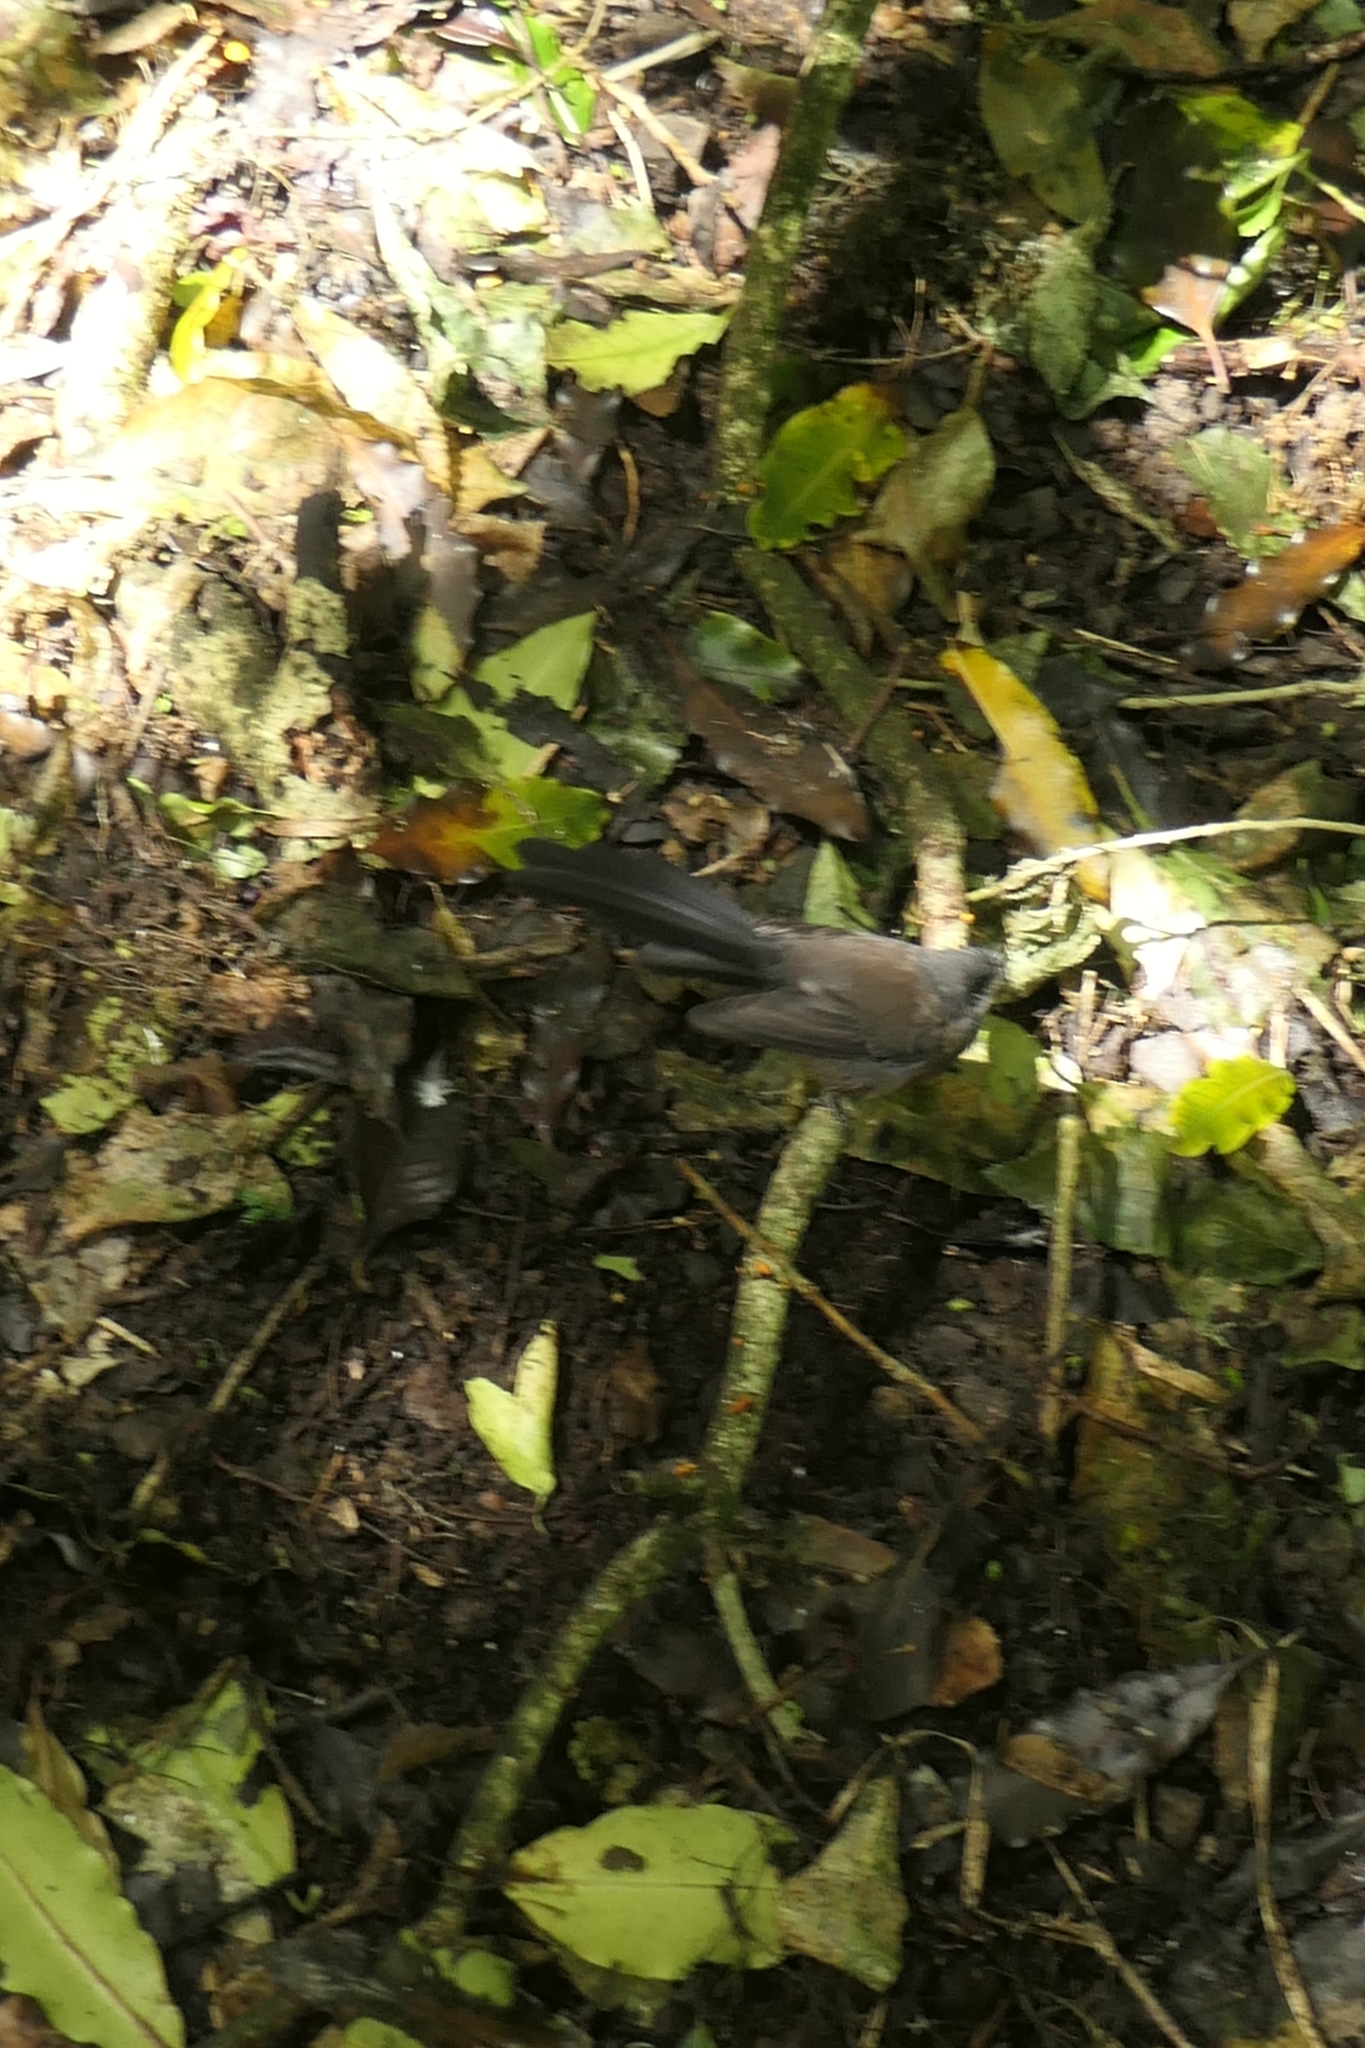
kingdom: Animalia
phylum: Chordata
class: Aves
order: Passeriformes
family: Rhipiduridae
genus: Rhipidura
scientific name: Rhipidura fuliginosa
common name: New zealand fantail
